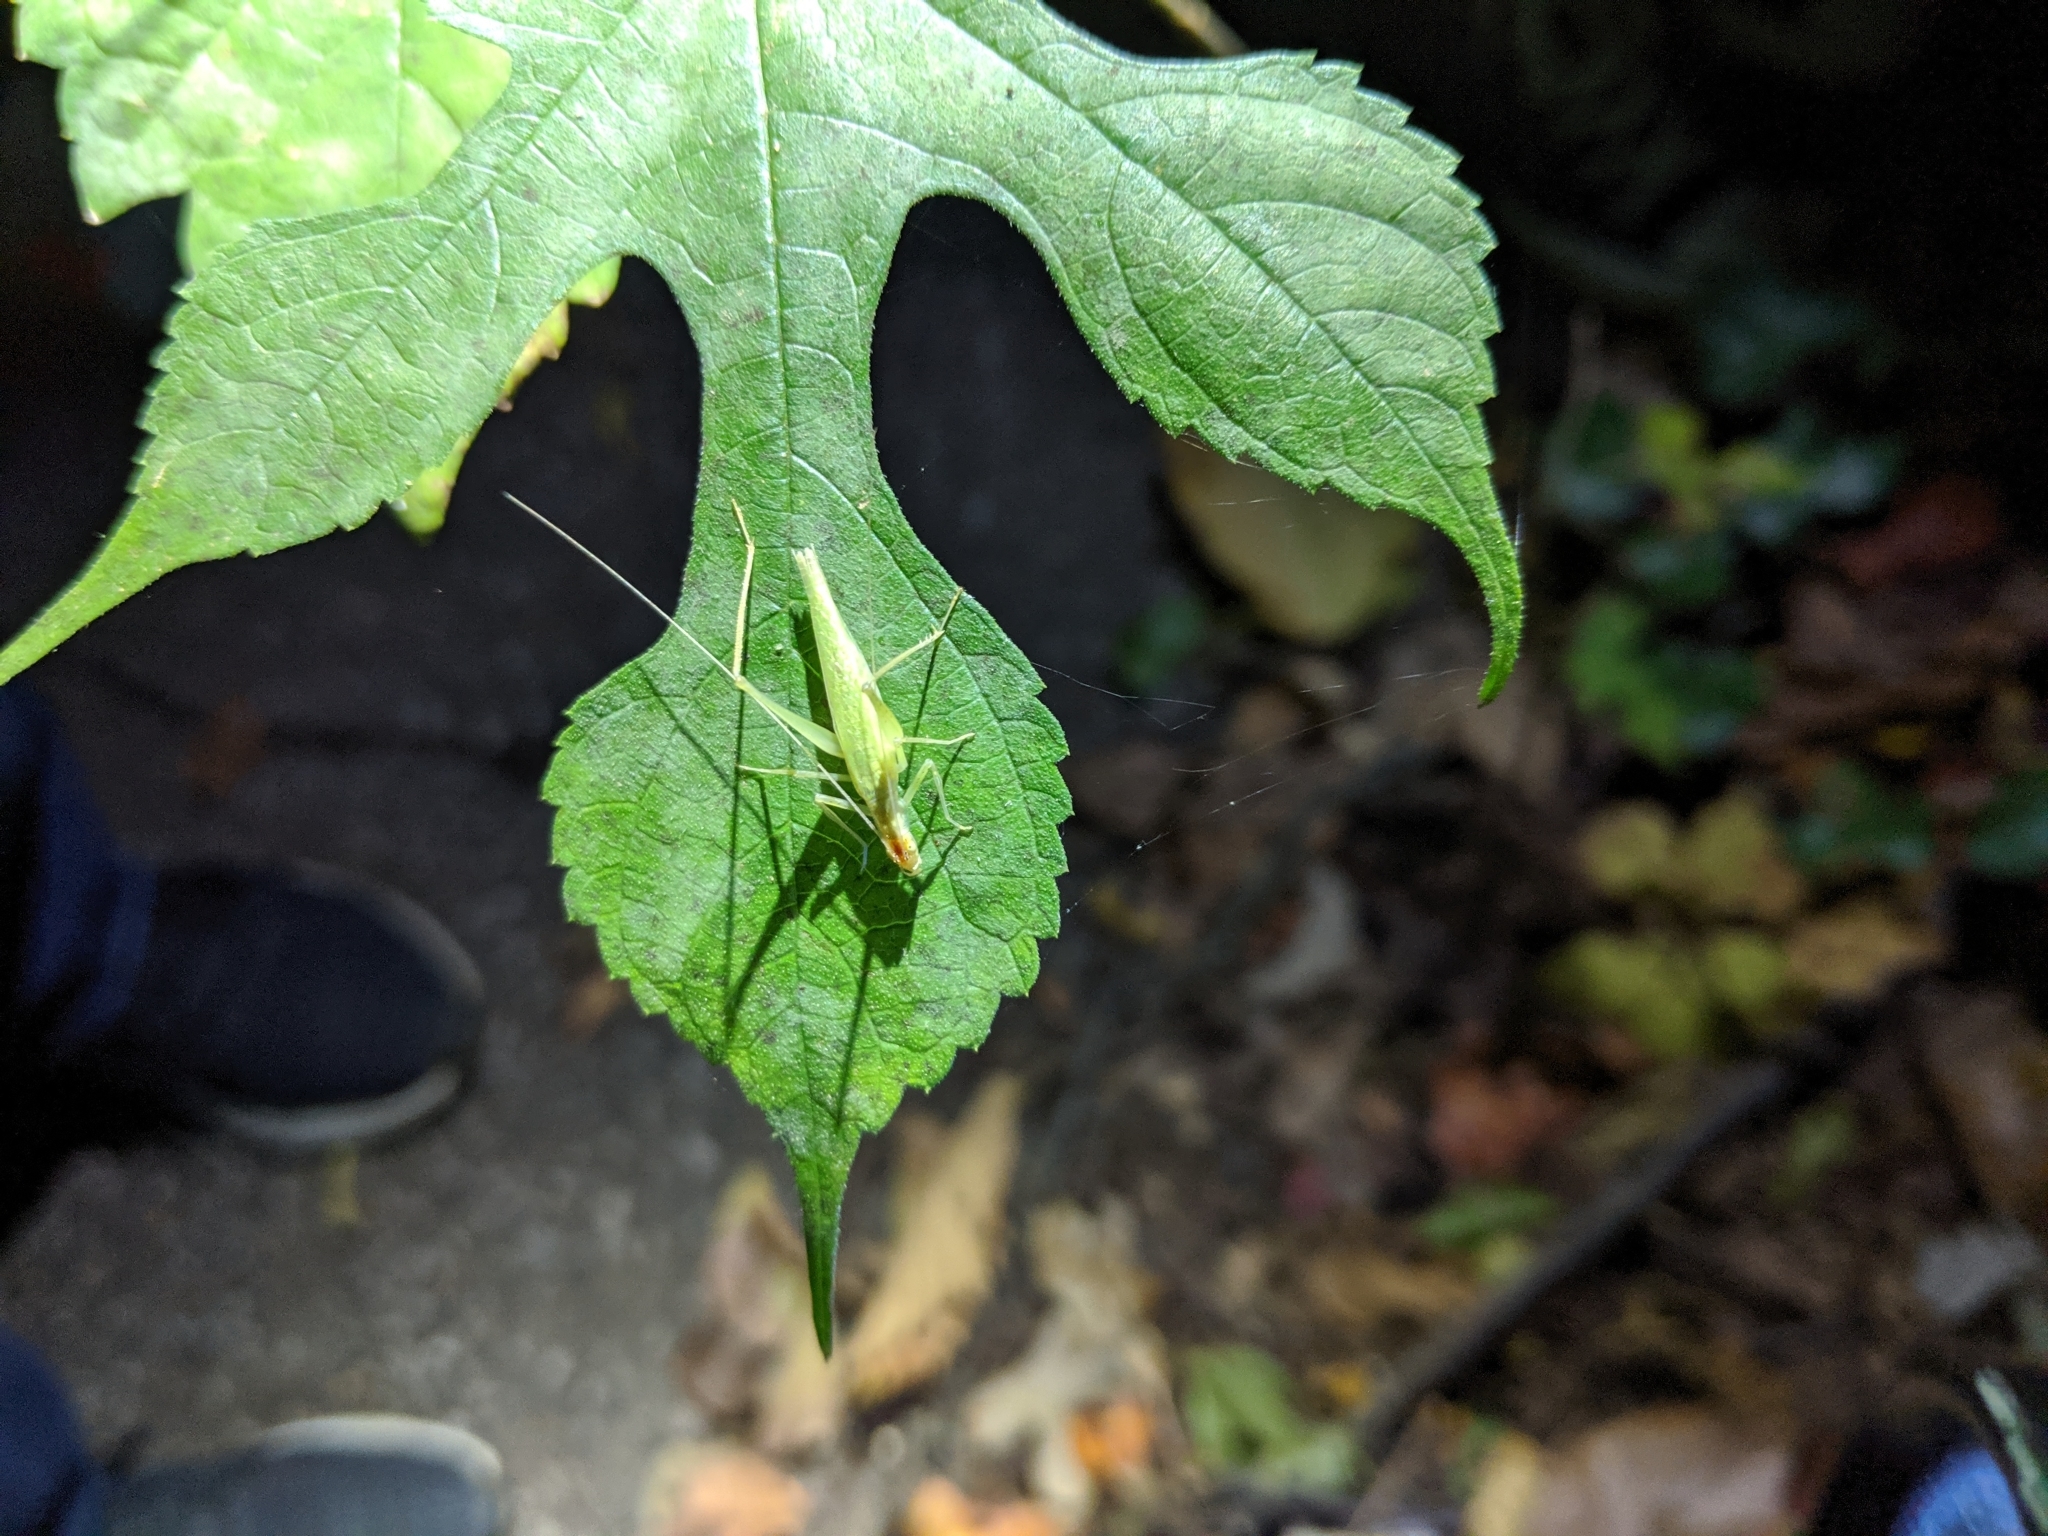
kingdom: Animalia
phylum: Arthropoda
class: Insecta
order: Orthoptera
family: Gryllidae
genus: Oecanthus
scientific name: Oecanthus niveus
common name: Narrow-winged tree cricket
